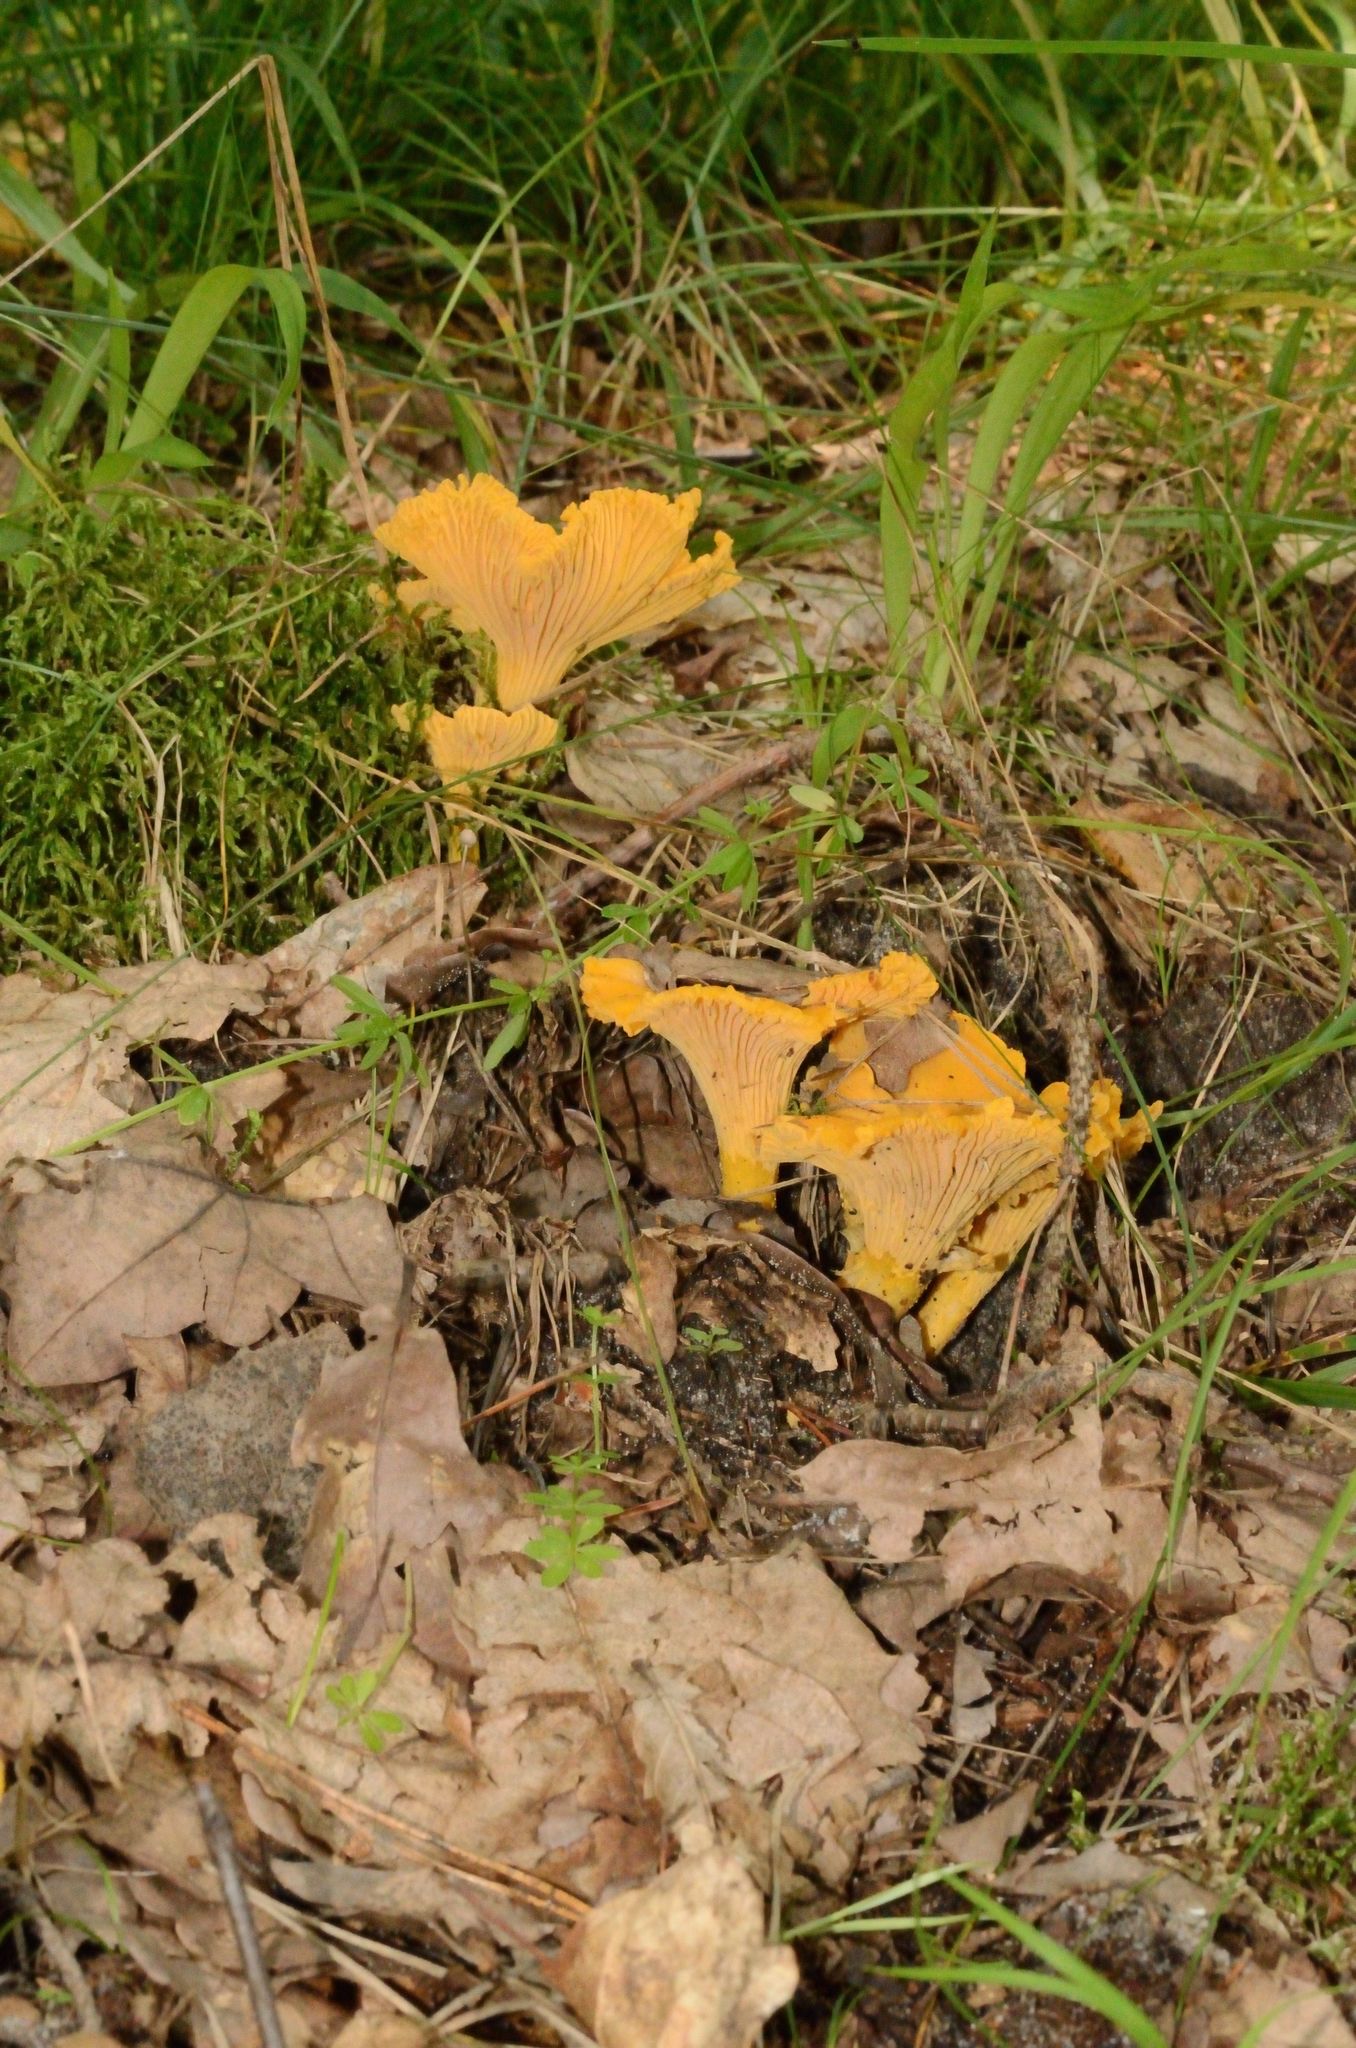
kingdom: Fungi
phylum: Basidiomycota
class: Agaricomycetes
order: Cantharellales
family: Hydnaceae
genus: Cantharellus
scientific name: Cantharellus cibarius
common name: Chanterelle
